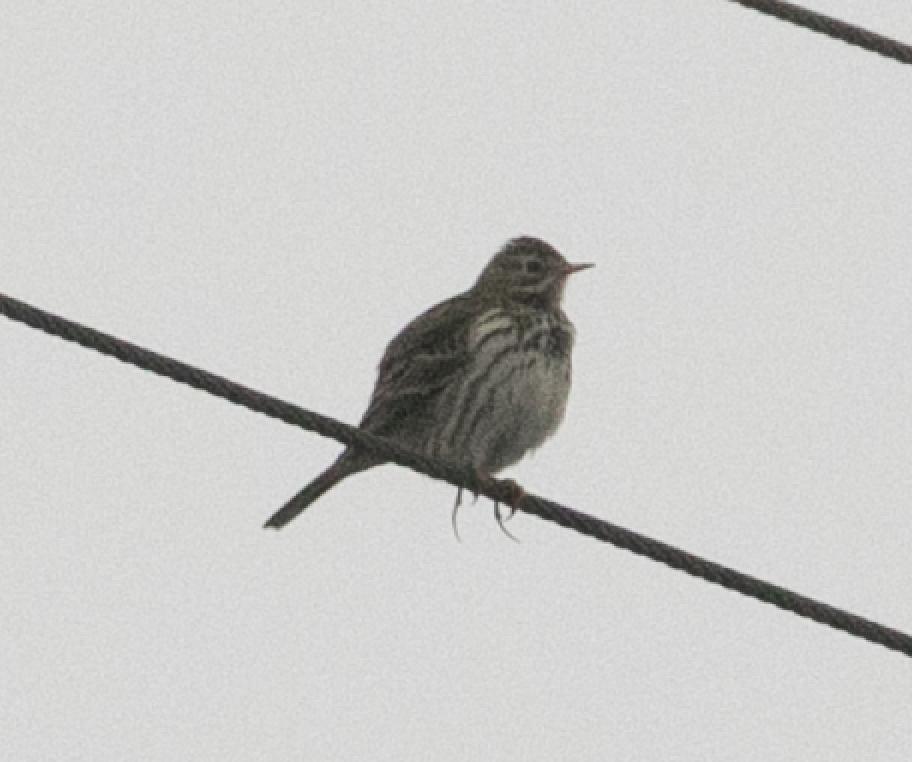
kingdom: Animalia
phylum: Chordata
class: Aves
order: Passeriformes
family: Motacillidae
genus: Anthus
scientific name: Anthus pratensis
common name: Meadow pipit
